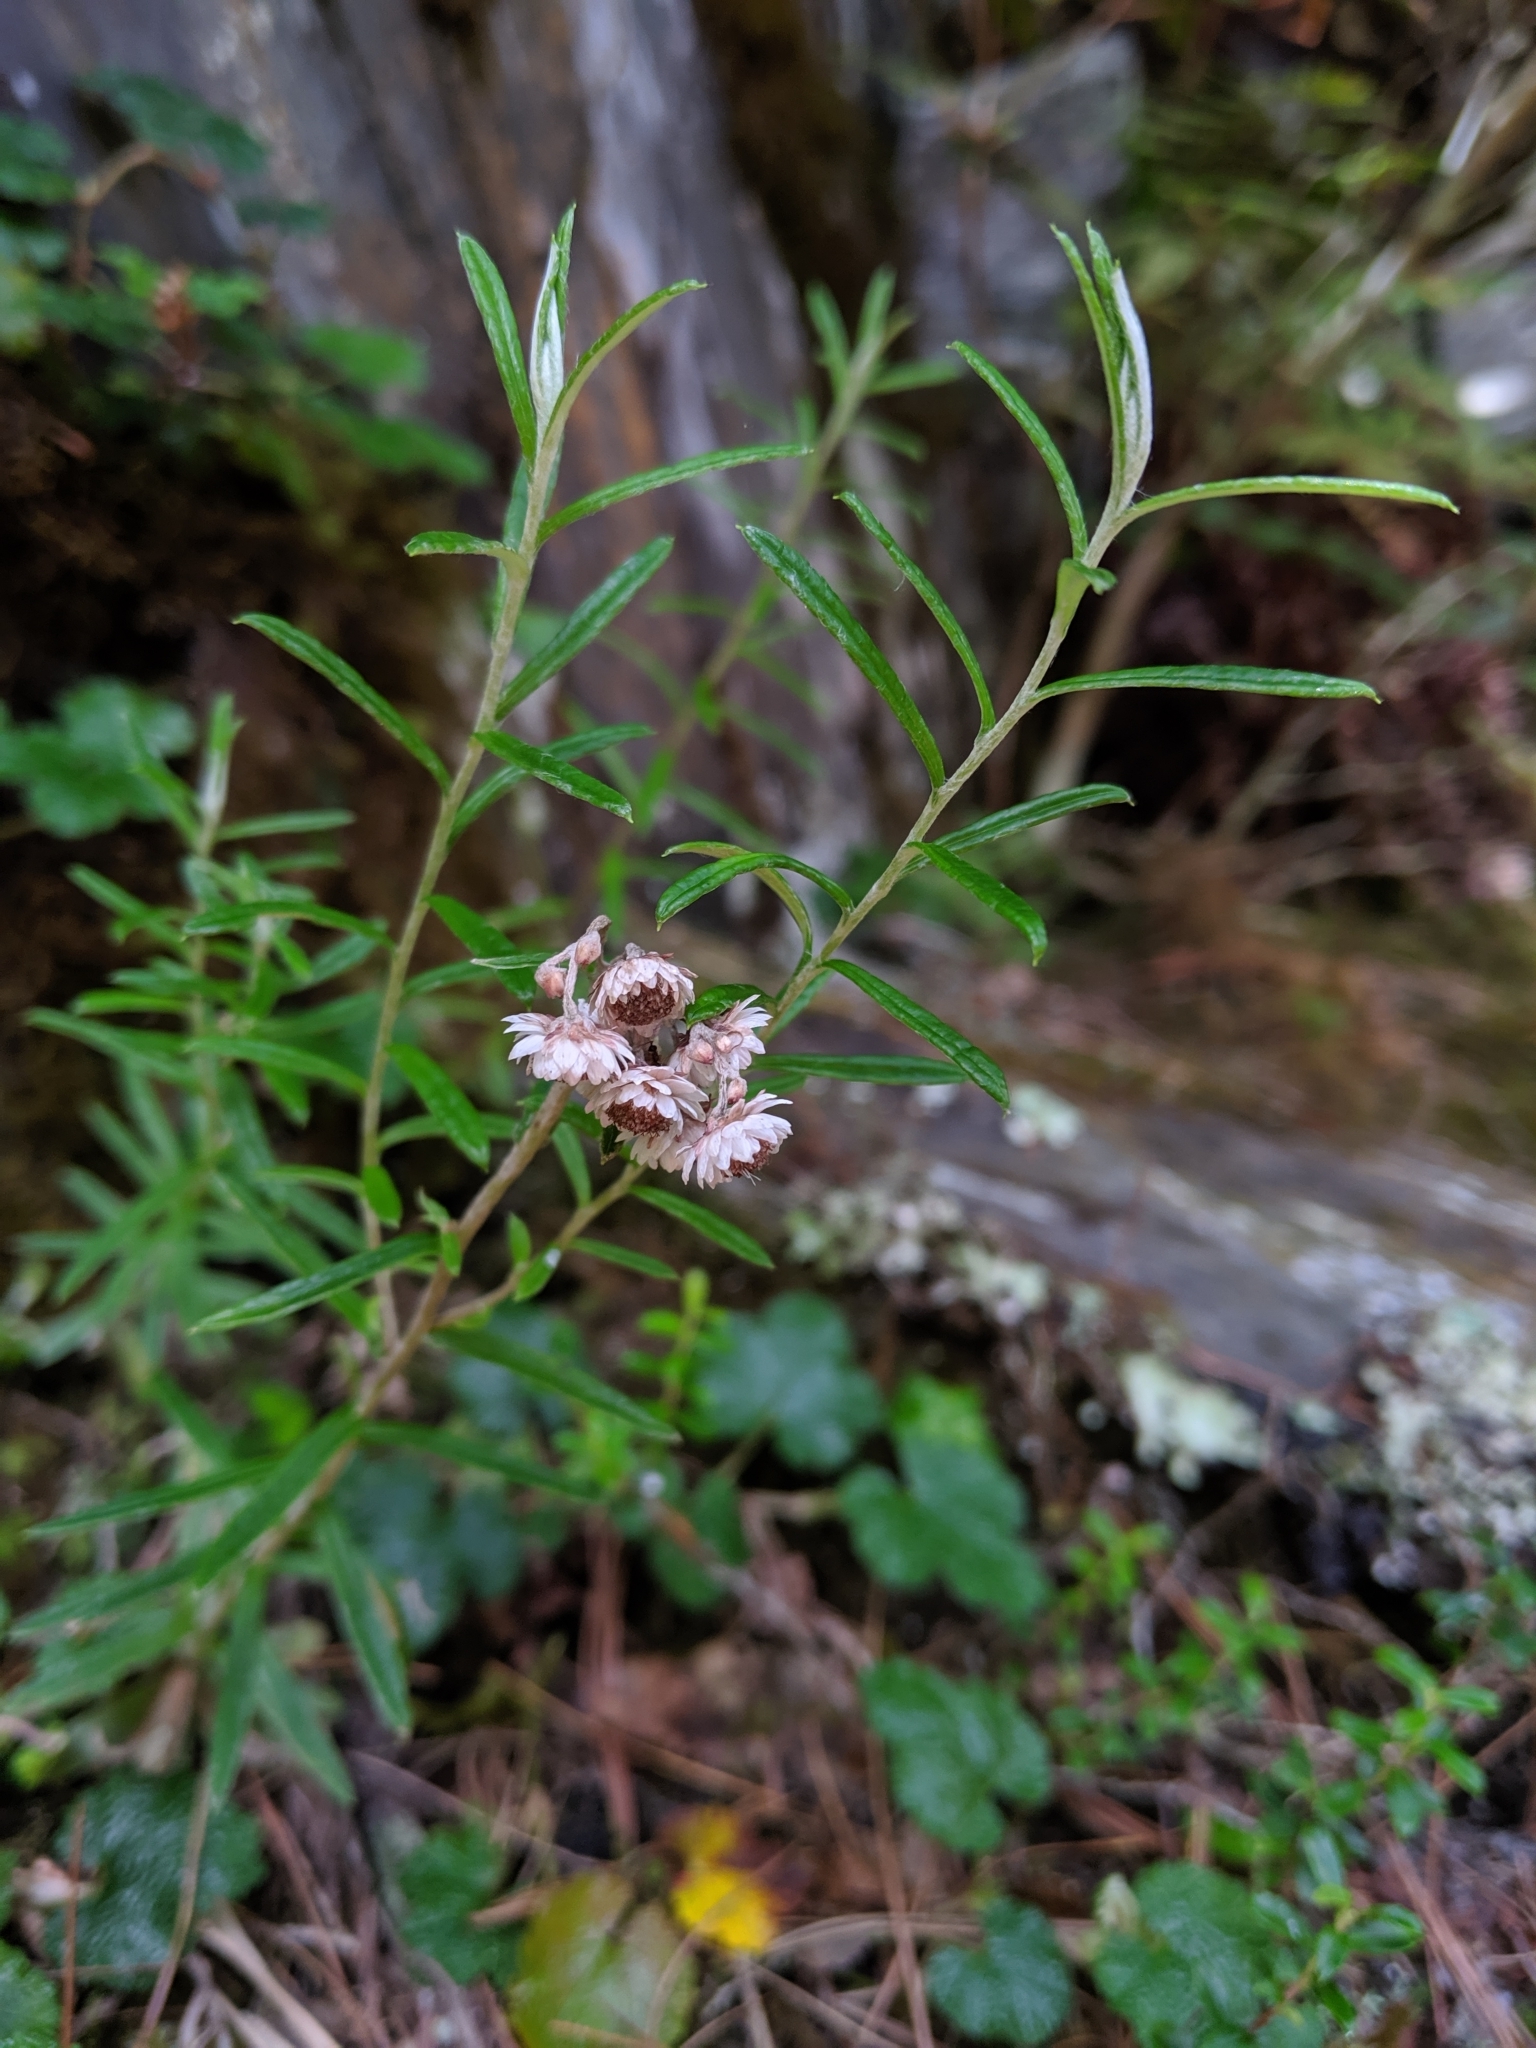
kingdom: Plantae
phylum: Tracheophyta
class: Magnoliopsida
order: Asterales
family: Asteraceae
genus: Anaphalis
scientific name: Anaphalis morrisonicola
